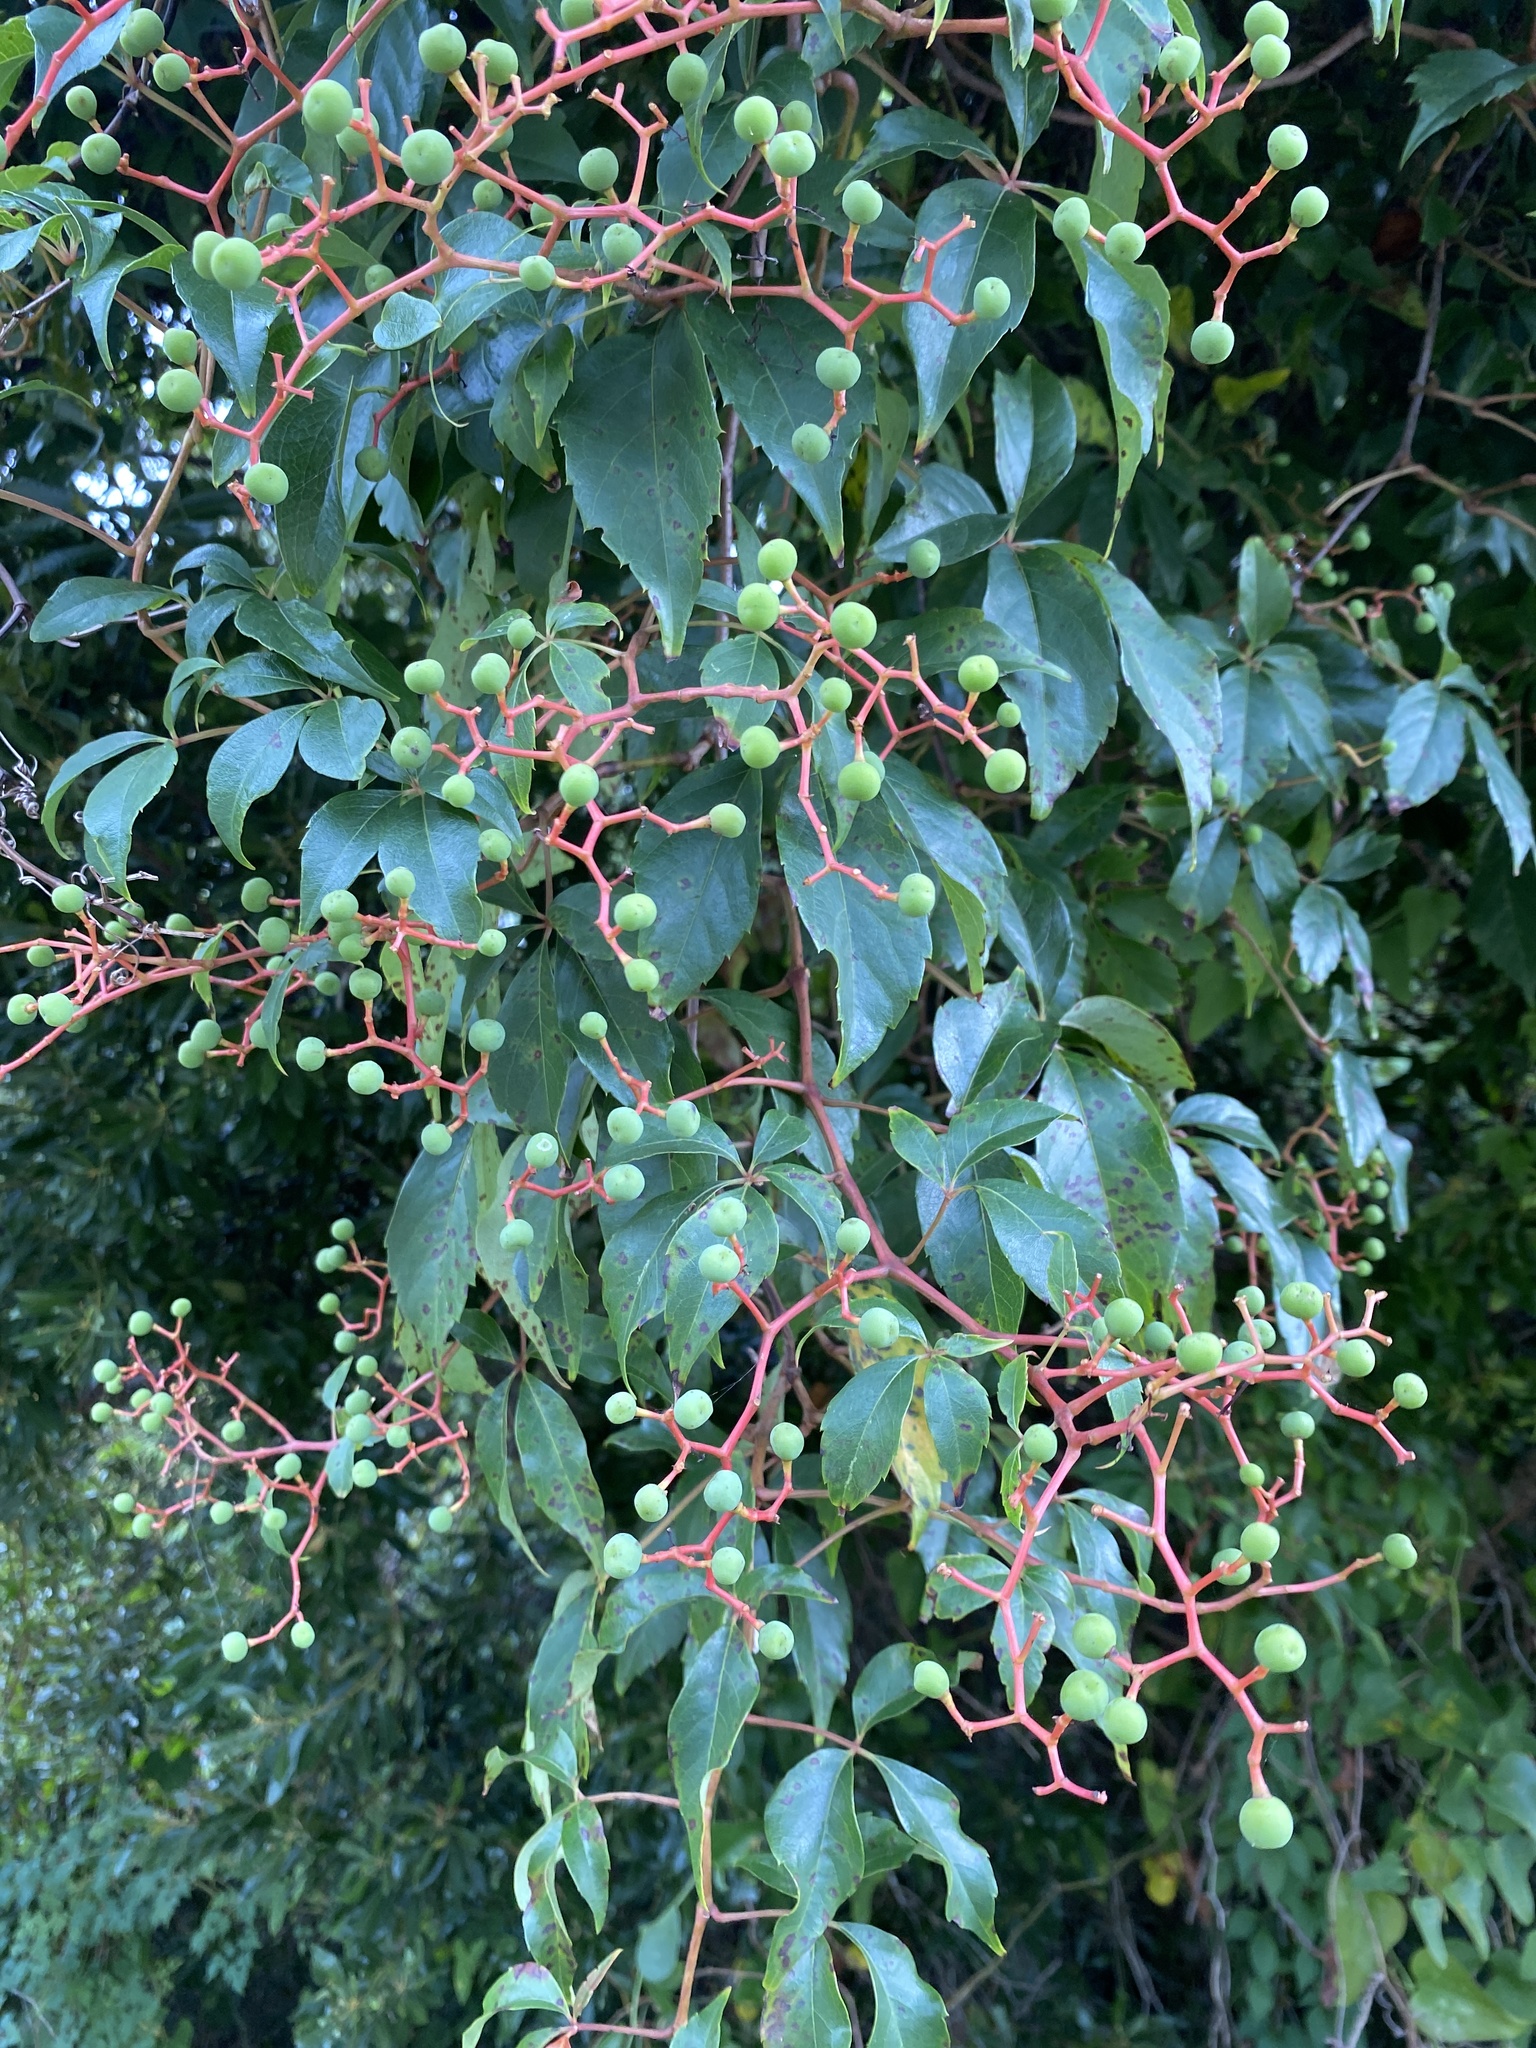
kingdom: Plantae
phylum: Tracheophyta
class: Magnoliopsida
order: Vitales
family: Vitaceae
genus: Parthenocissus
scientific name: Parthenocissus quinquefolia
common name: Virginia-creeper
